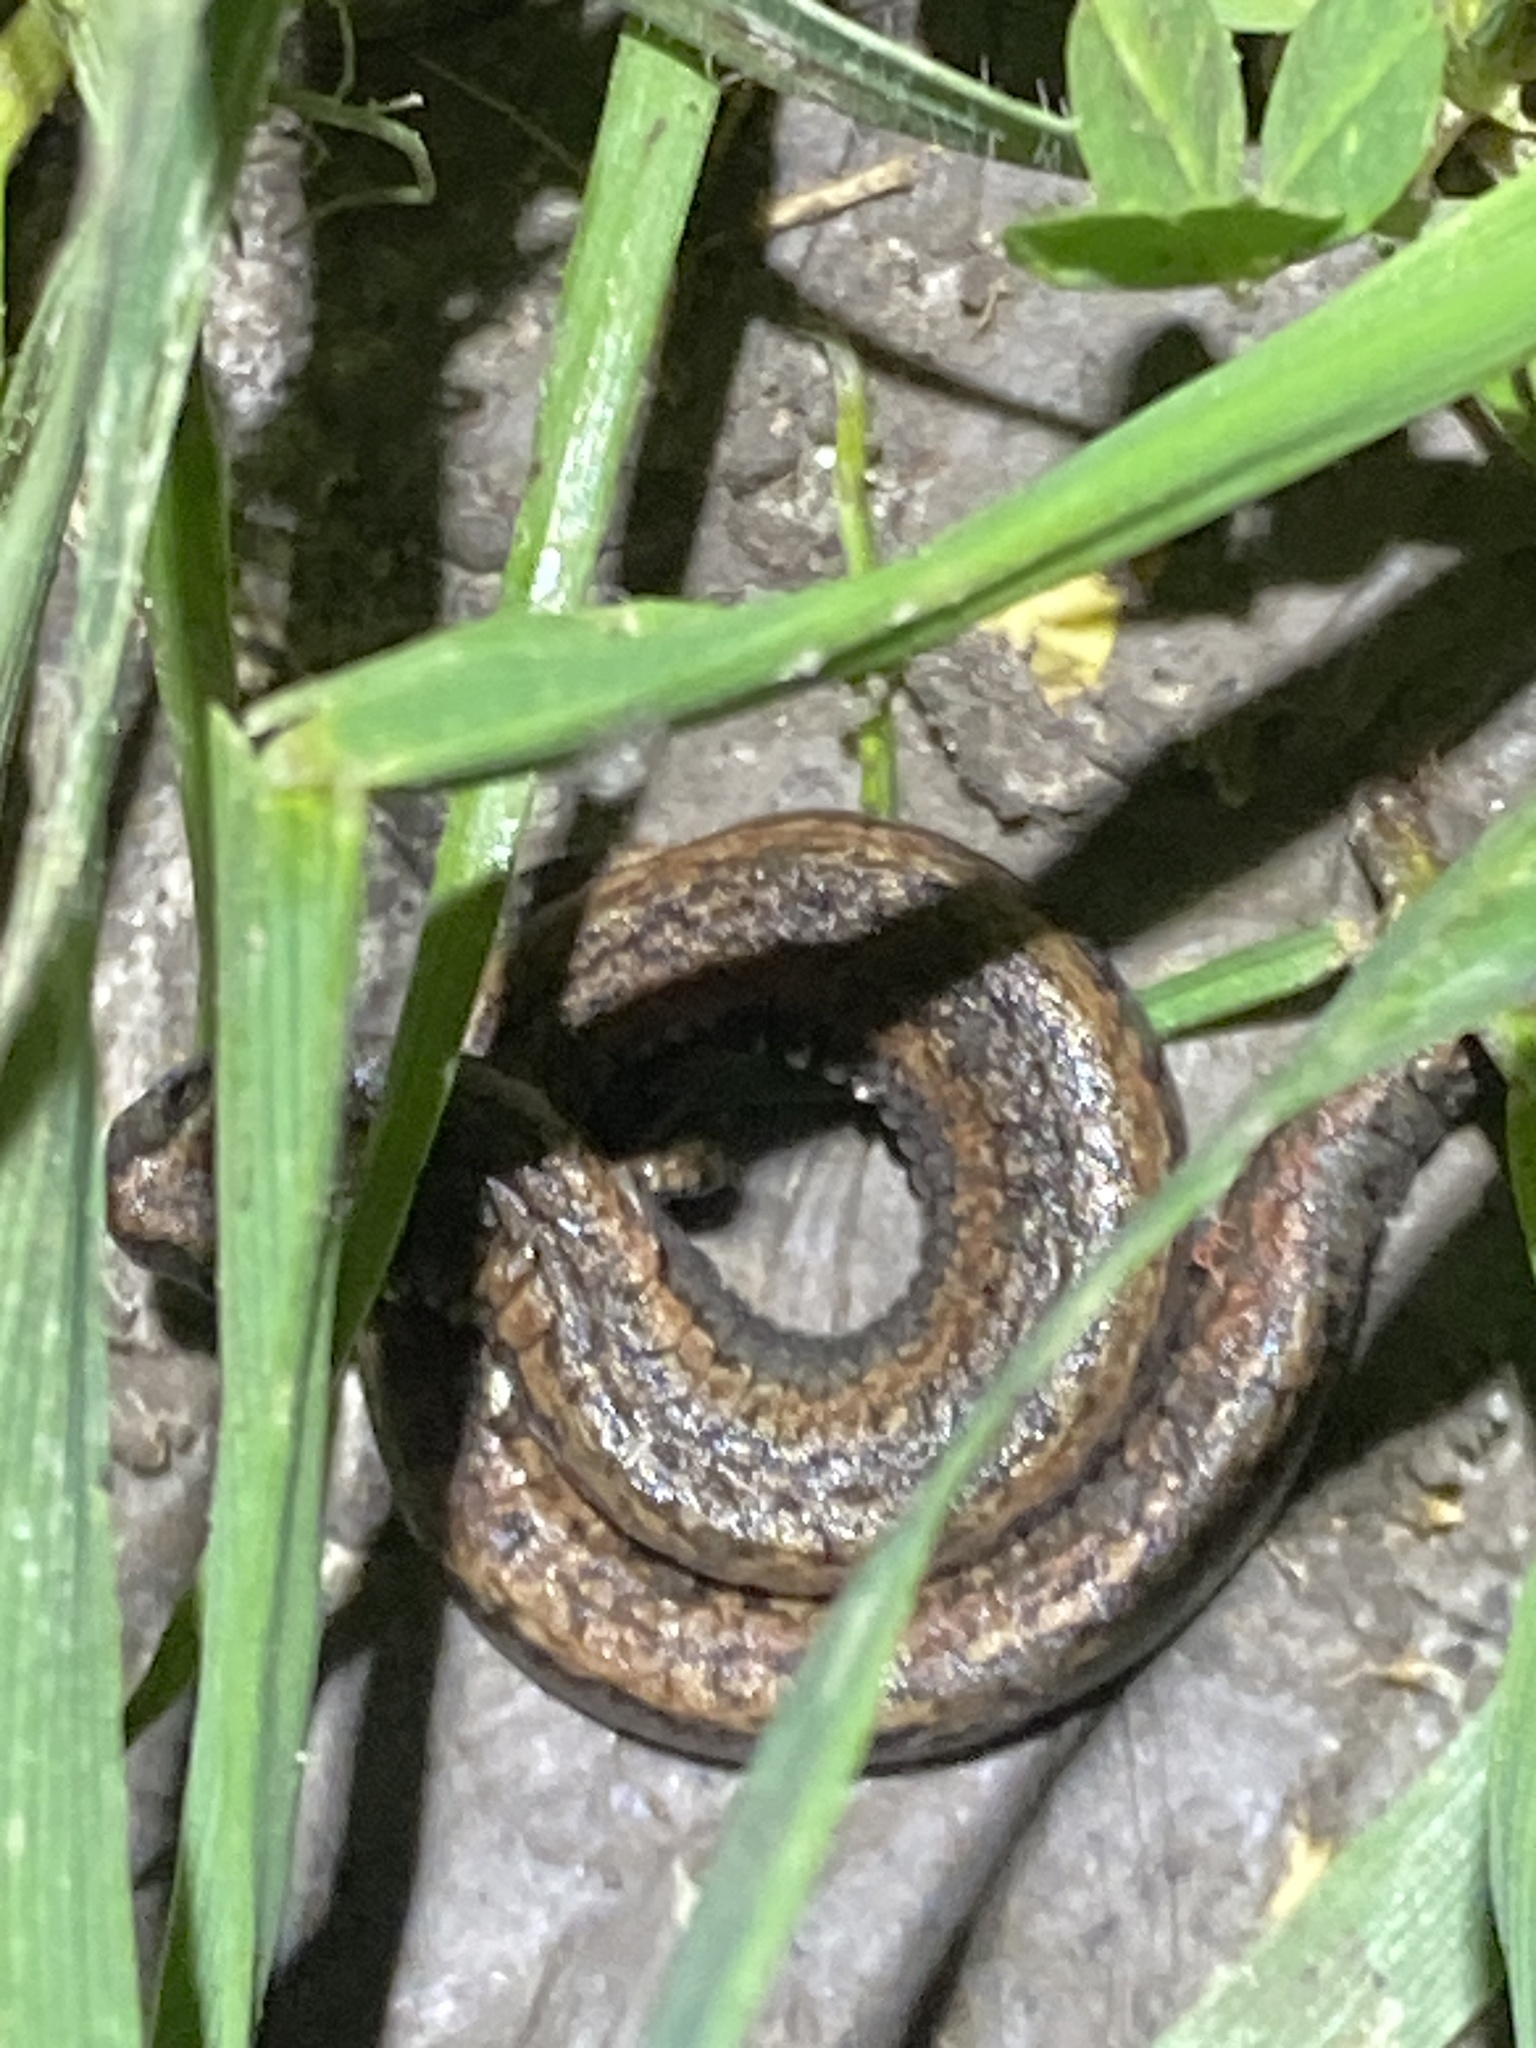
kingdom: Animalia
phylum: Chordata
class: Amphibia
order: Caudata
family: Plethodontidae
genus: Batrachoseps
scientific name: Batrachoseps attenuatus
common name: California slender salamander
